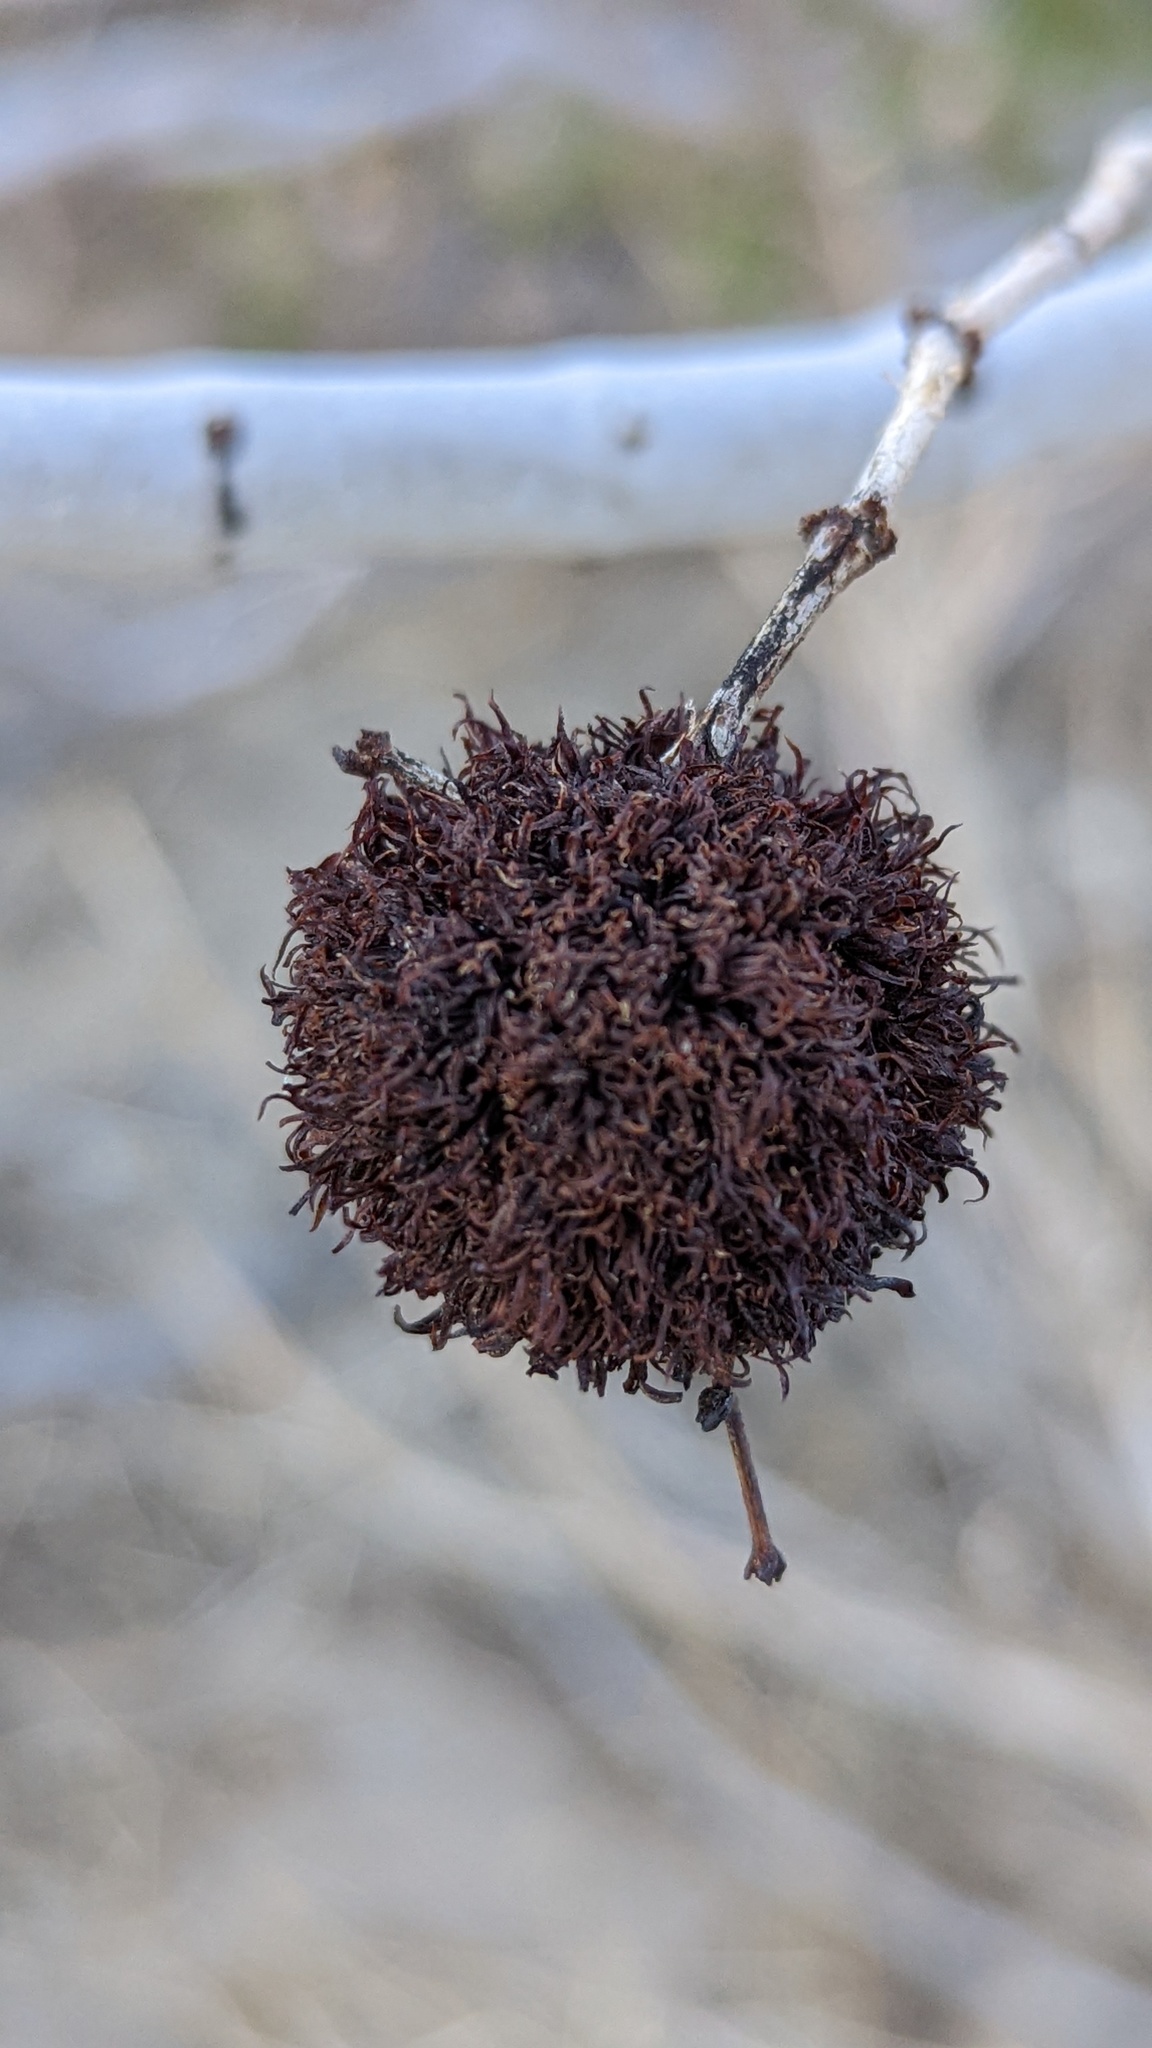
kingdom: Animalia
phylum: Arthropoda
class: Insecta
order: Diptera
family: Cecidomyiidae
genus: Asphondylia
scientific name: Asphondylia auripila
